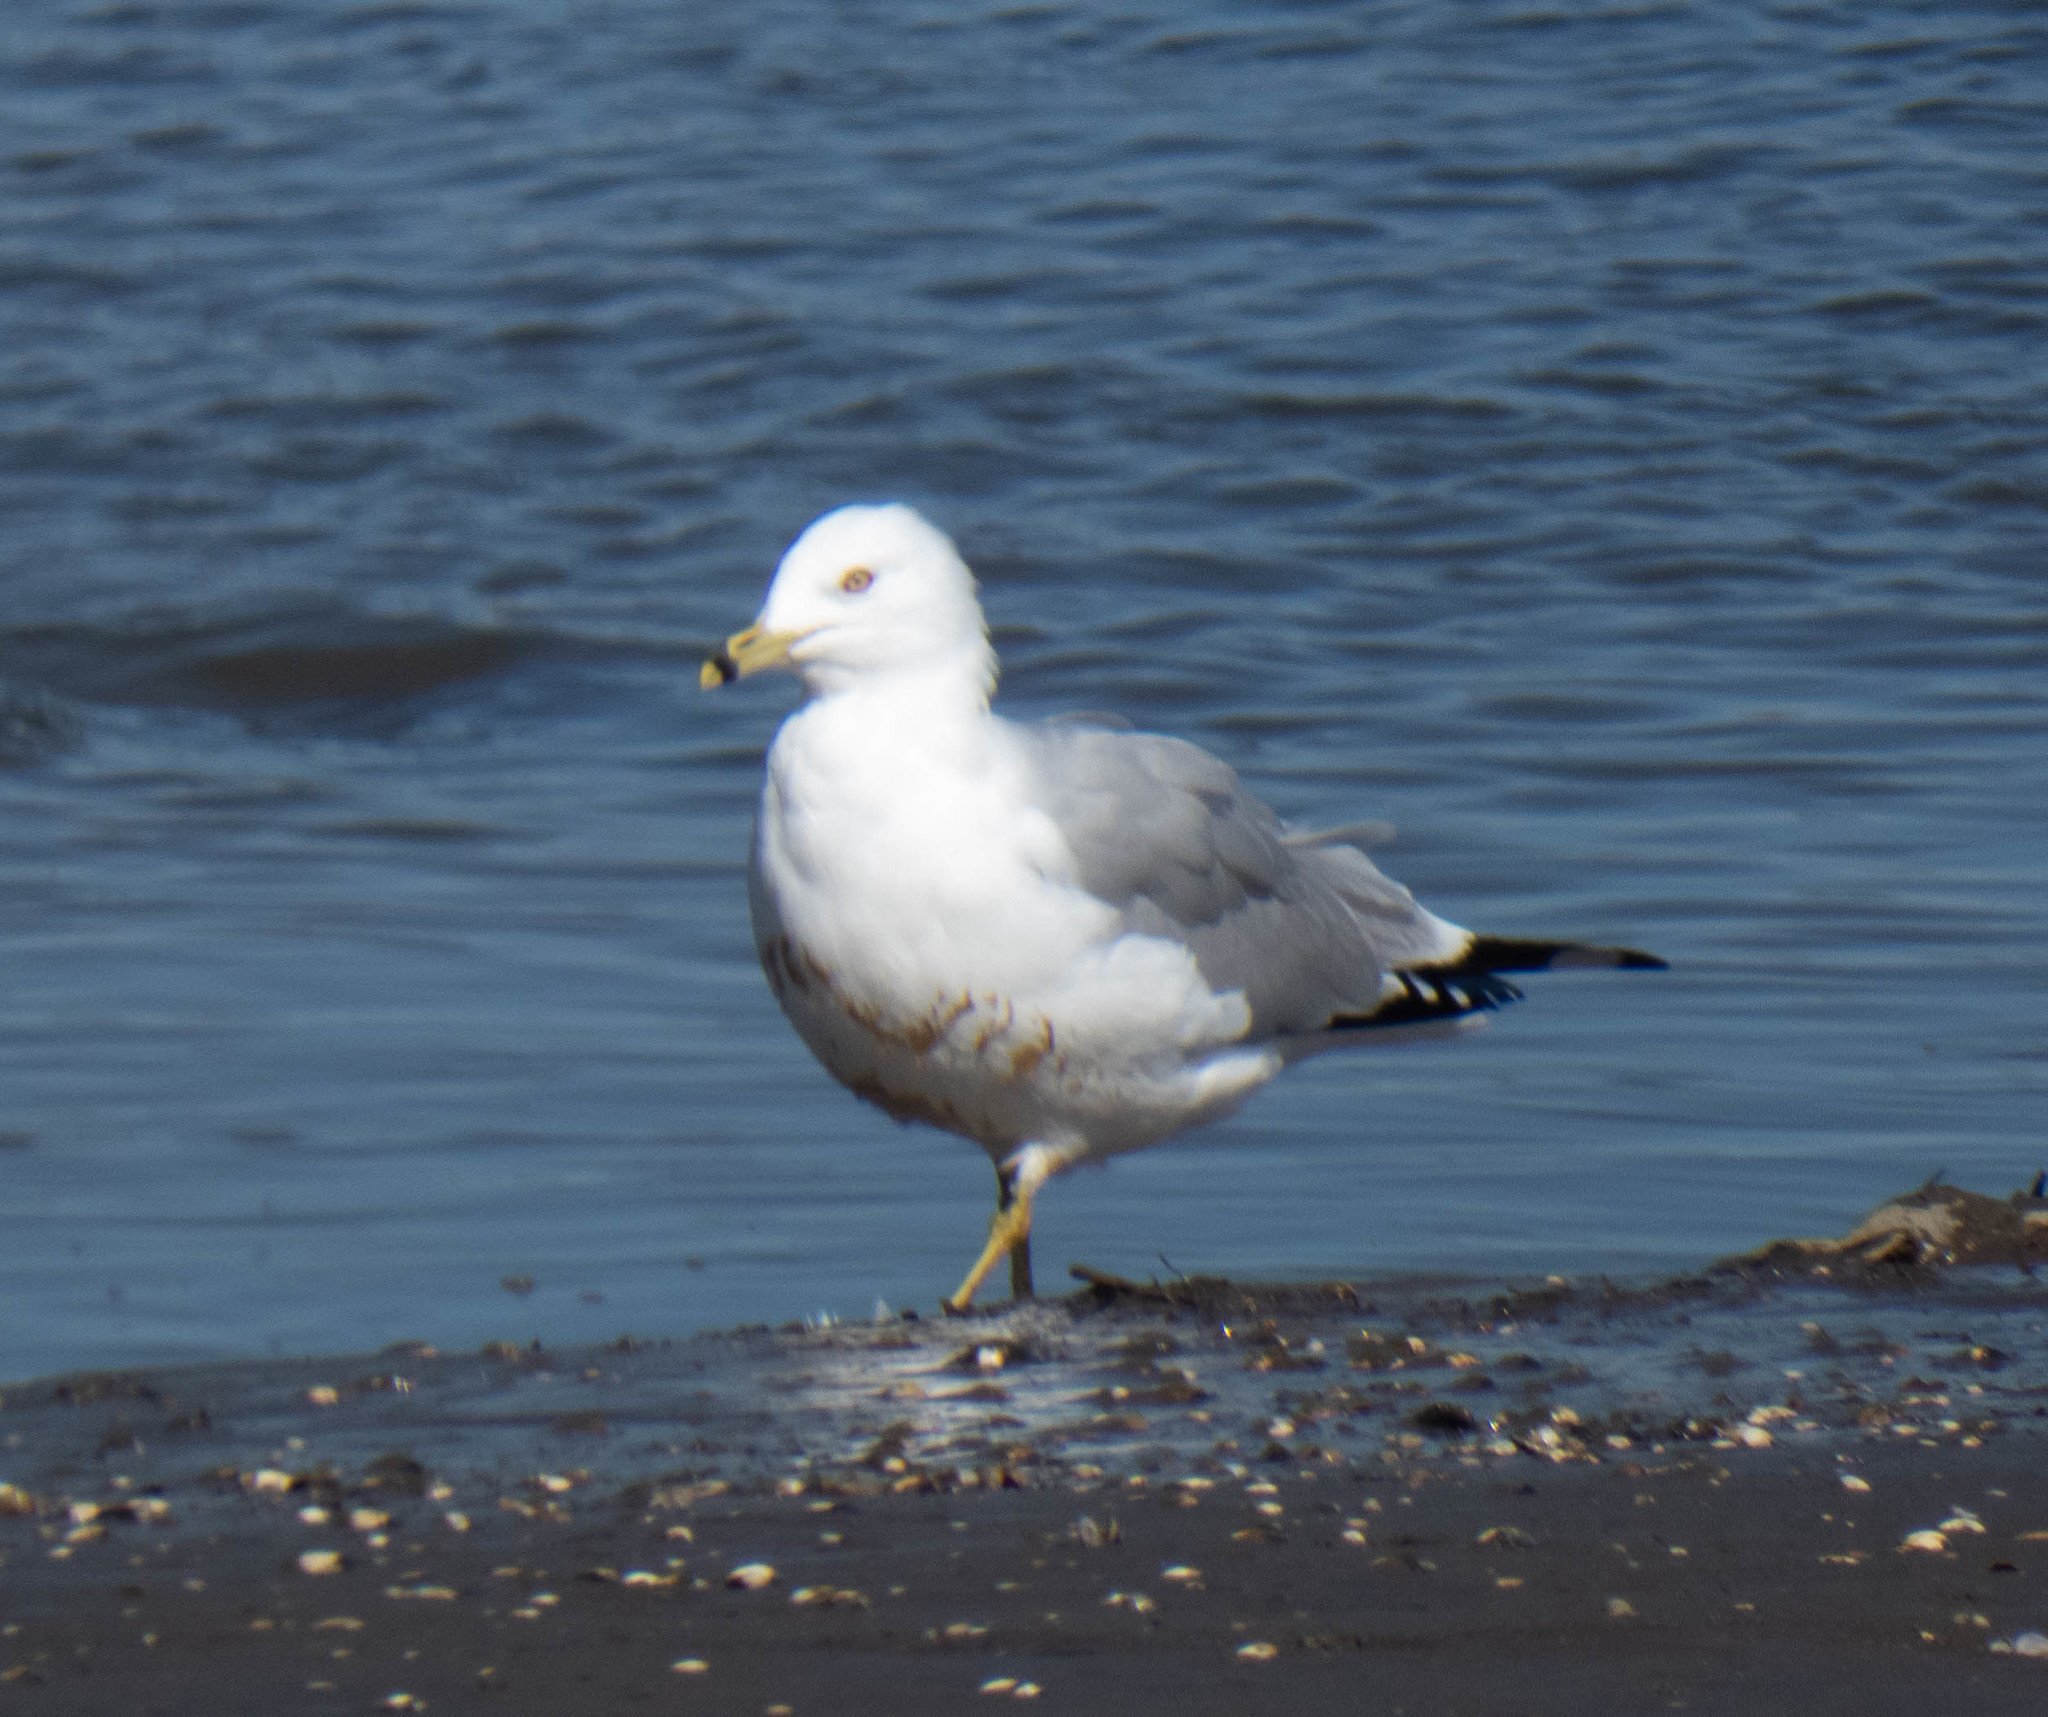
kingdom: Animalia
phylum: Chordata
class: Aves
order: Charadriiformes
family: Laridae
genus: Larus
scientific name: Larus delawarensis
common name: Ring-billed gull
